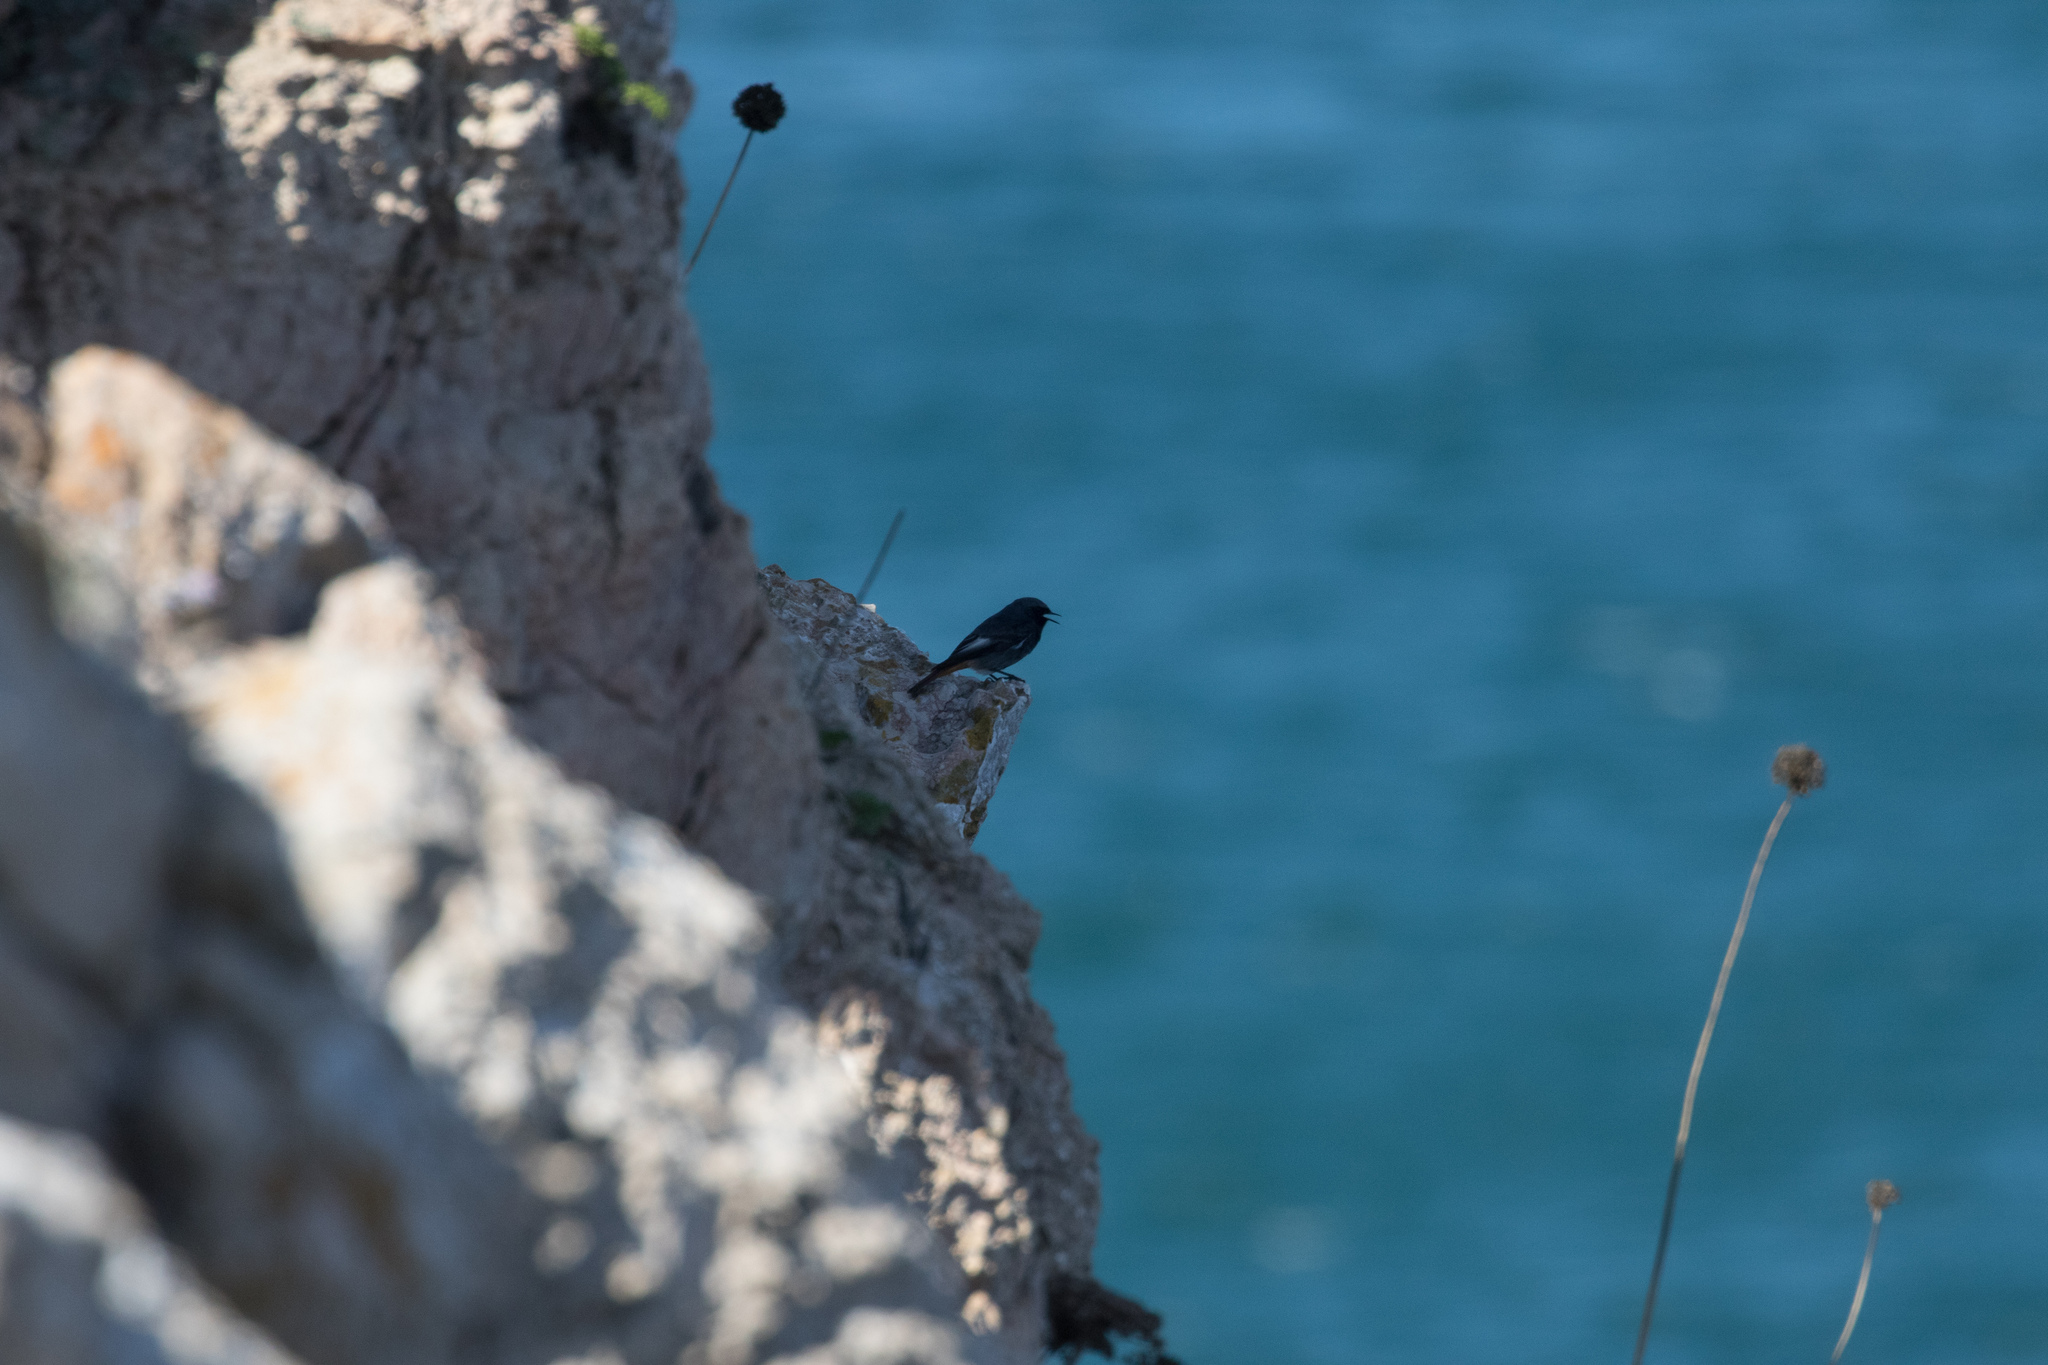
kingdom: Animalia
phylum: Chordata
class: Aves
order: Passeriformes
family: Muscicapidae
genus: Phoenicurus
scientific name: Phoenicurus ochruros
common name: Black redstart
